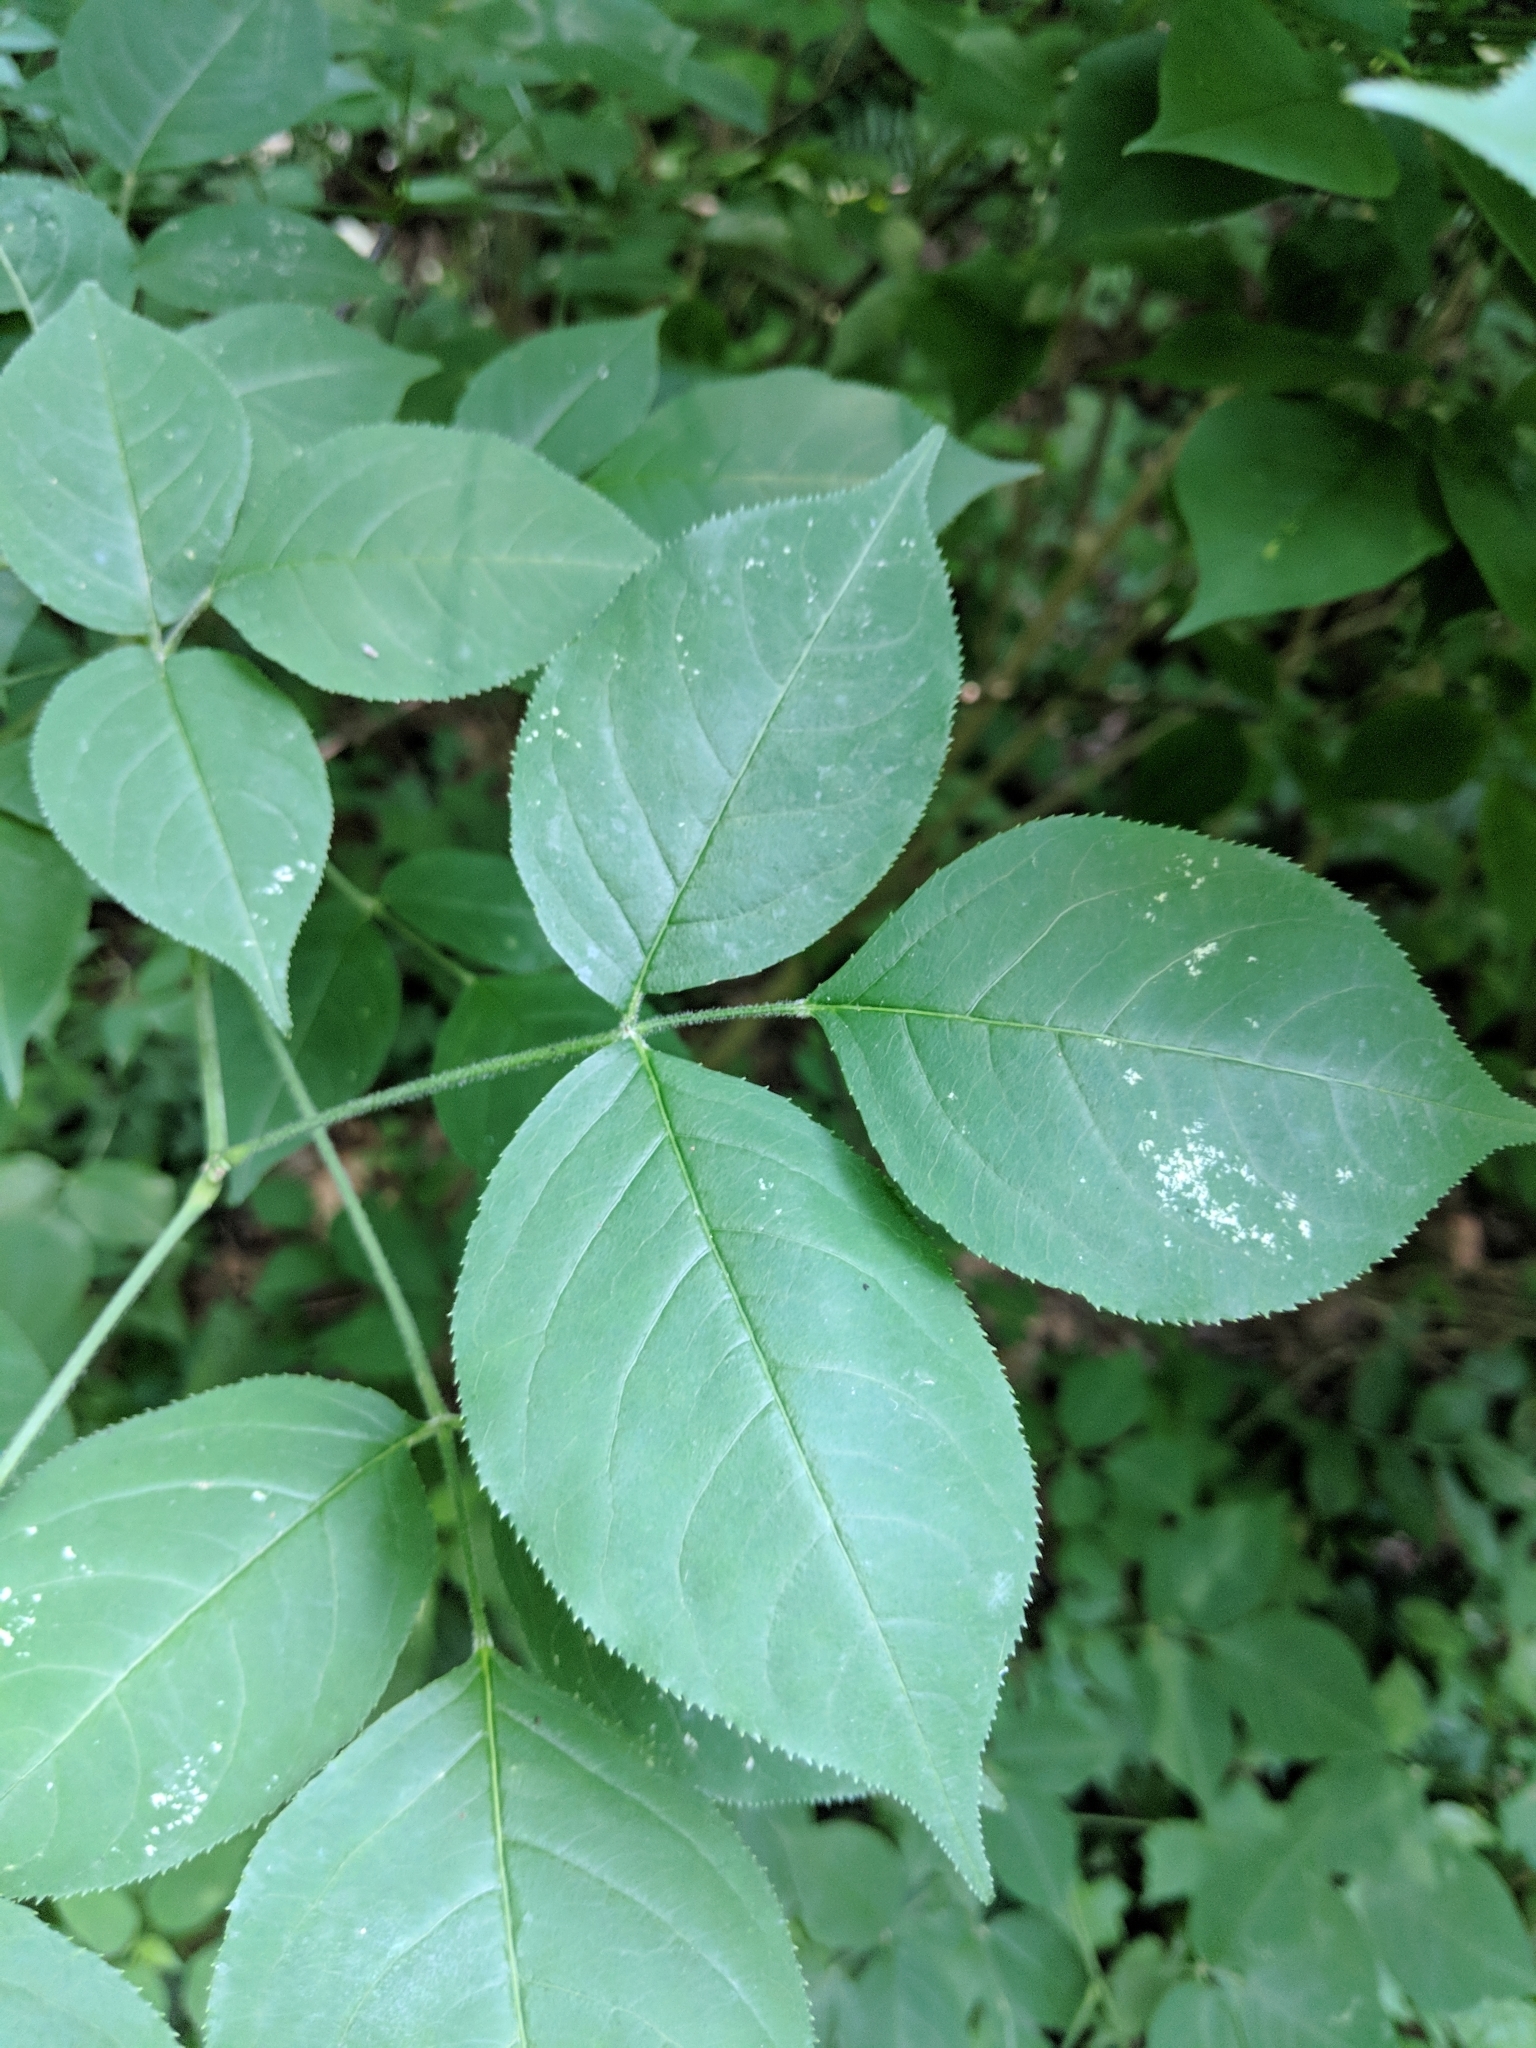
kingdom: Plantae
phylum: Tracheophyta
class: Magnoliopsida
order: Crossosomatales
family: Staphyleaceae
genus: Staphylea
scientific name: Staphylea trifolia
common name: American bladdernut
